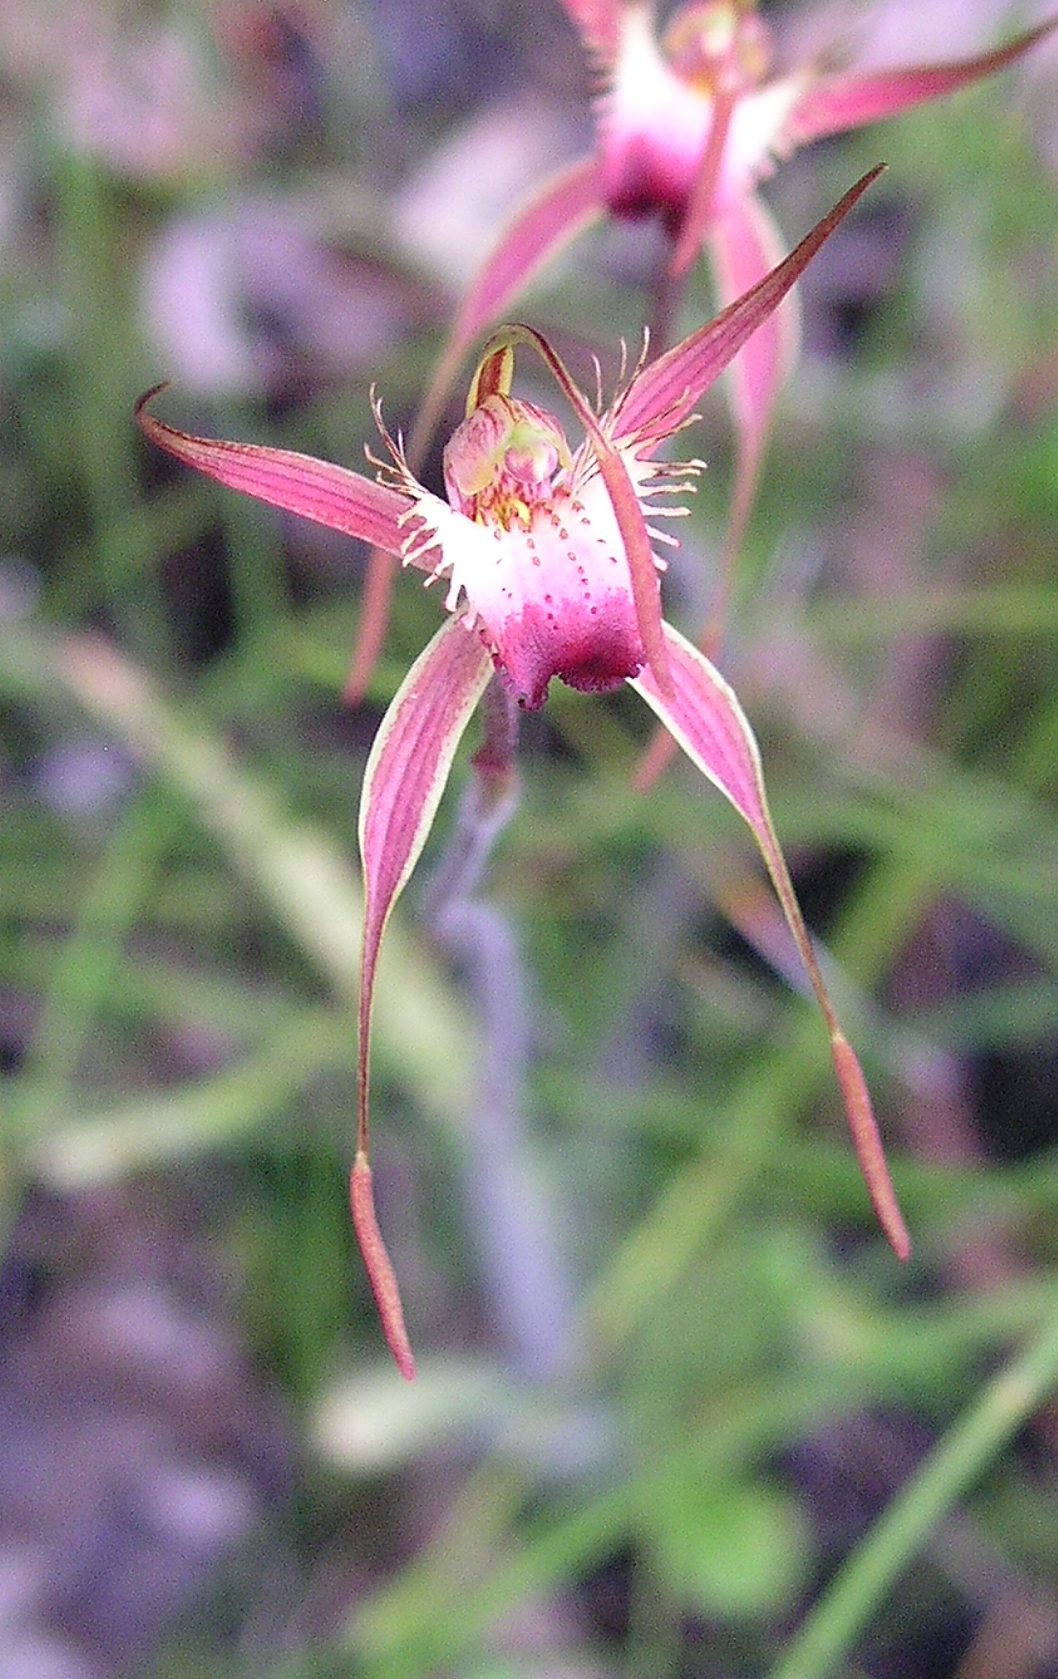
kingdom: Plantae
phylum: Tracheophyta
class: Liliopsida
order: Asparagales
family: Orchidaceae
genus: Caladenia
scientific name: Caladenia ferruginea
